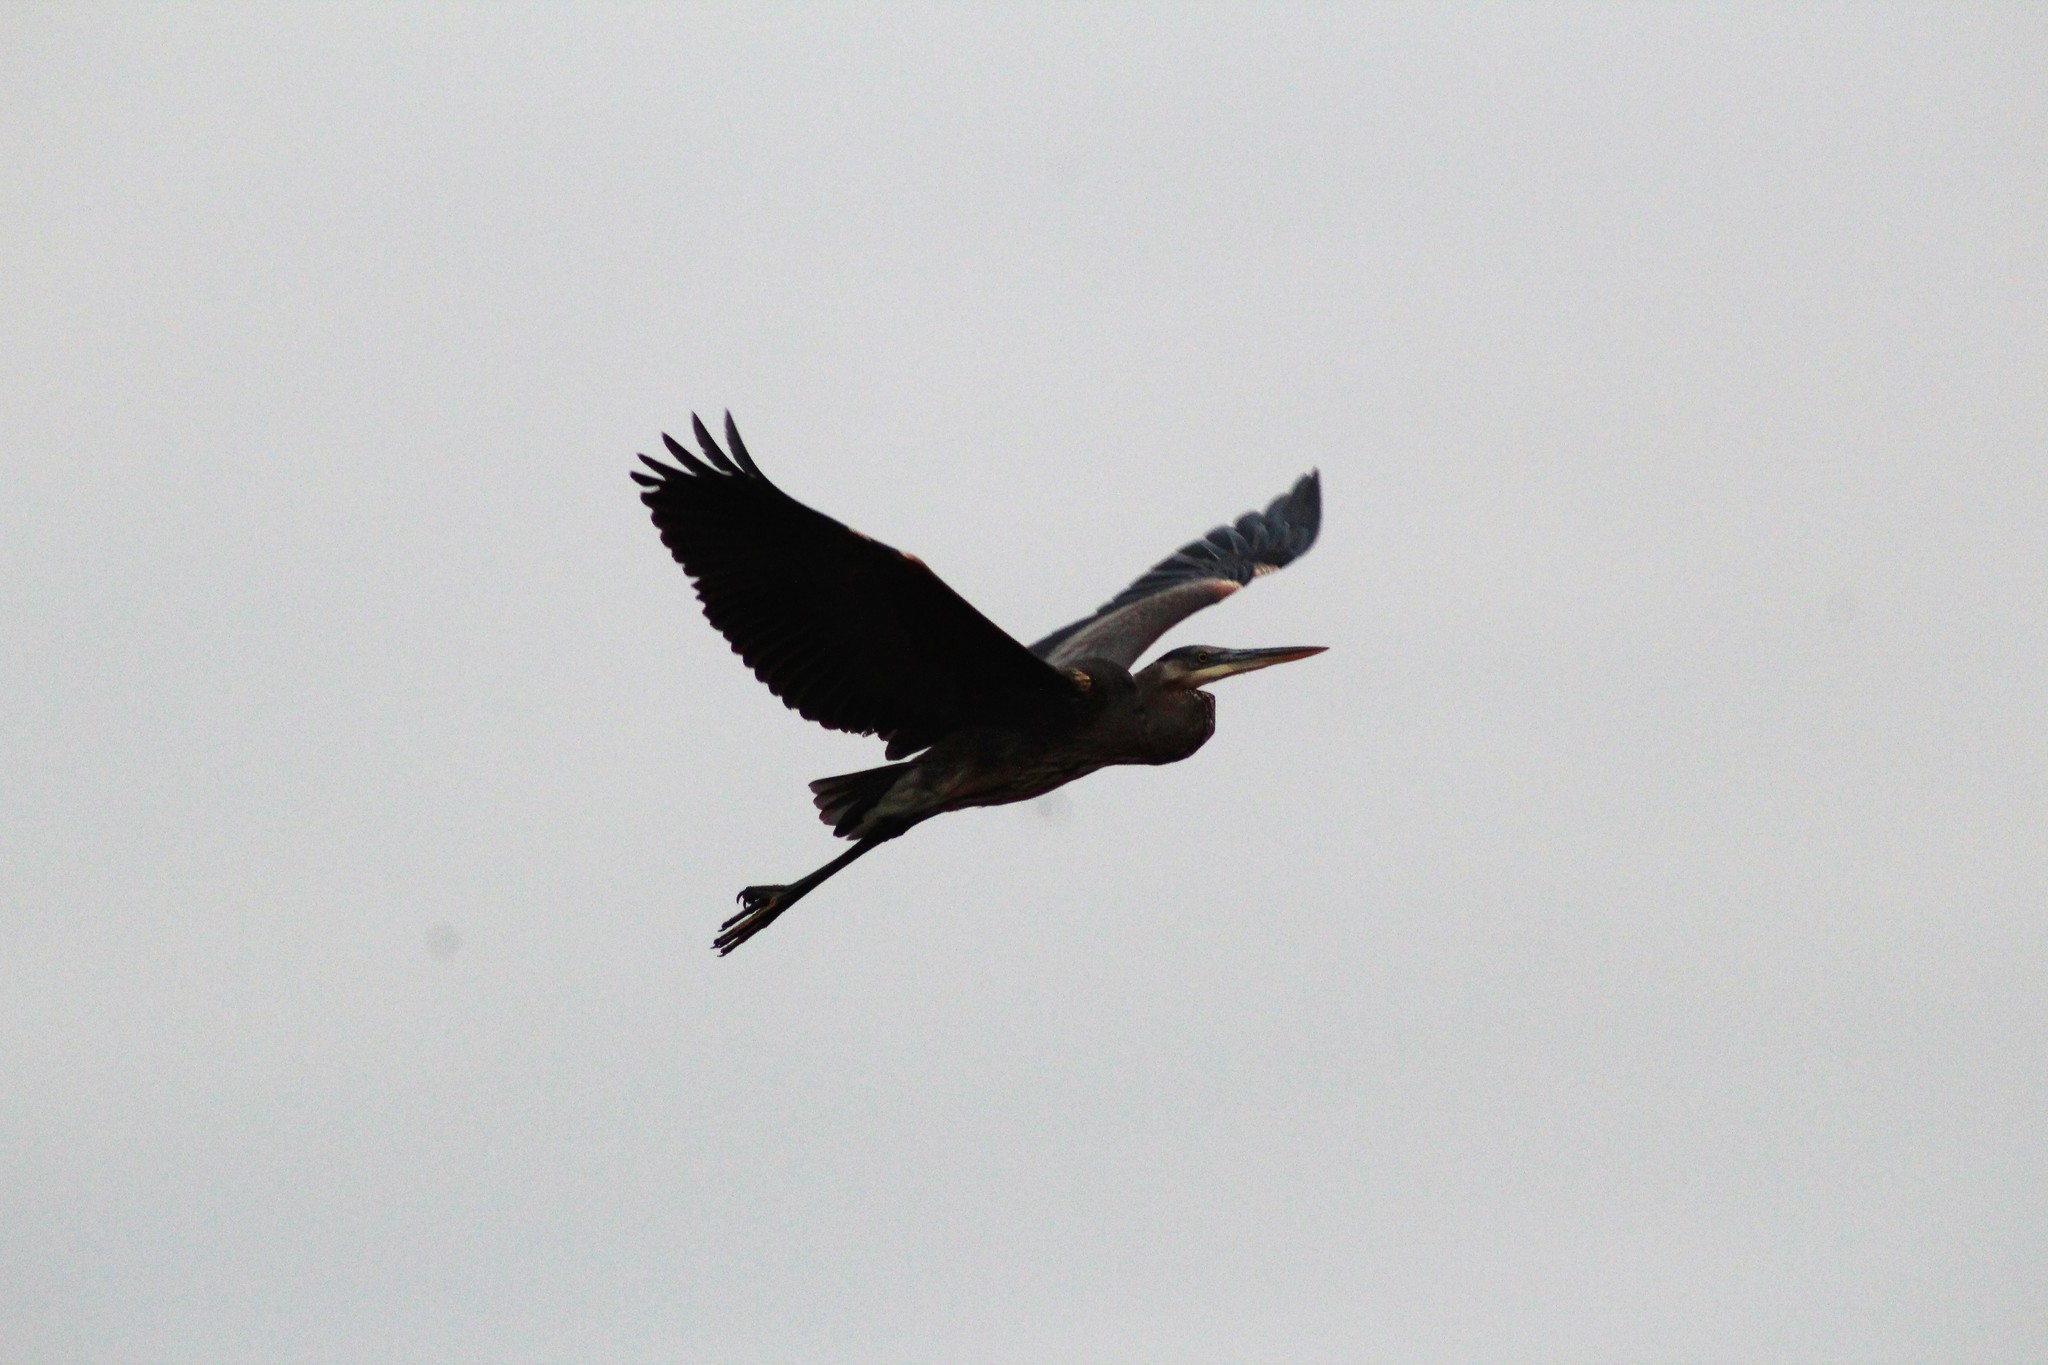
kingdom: Animalia
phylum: Chordata
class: Aves
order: Pelecaniformes
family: Ardeidae
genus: Ardea
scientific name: Ardea herodias
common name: Great blue heron
